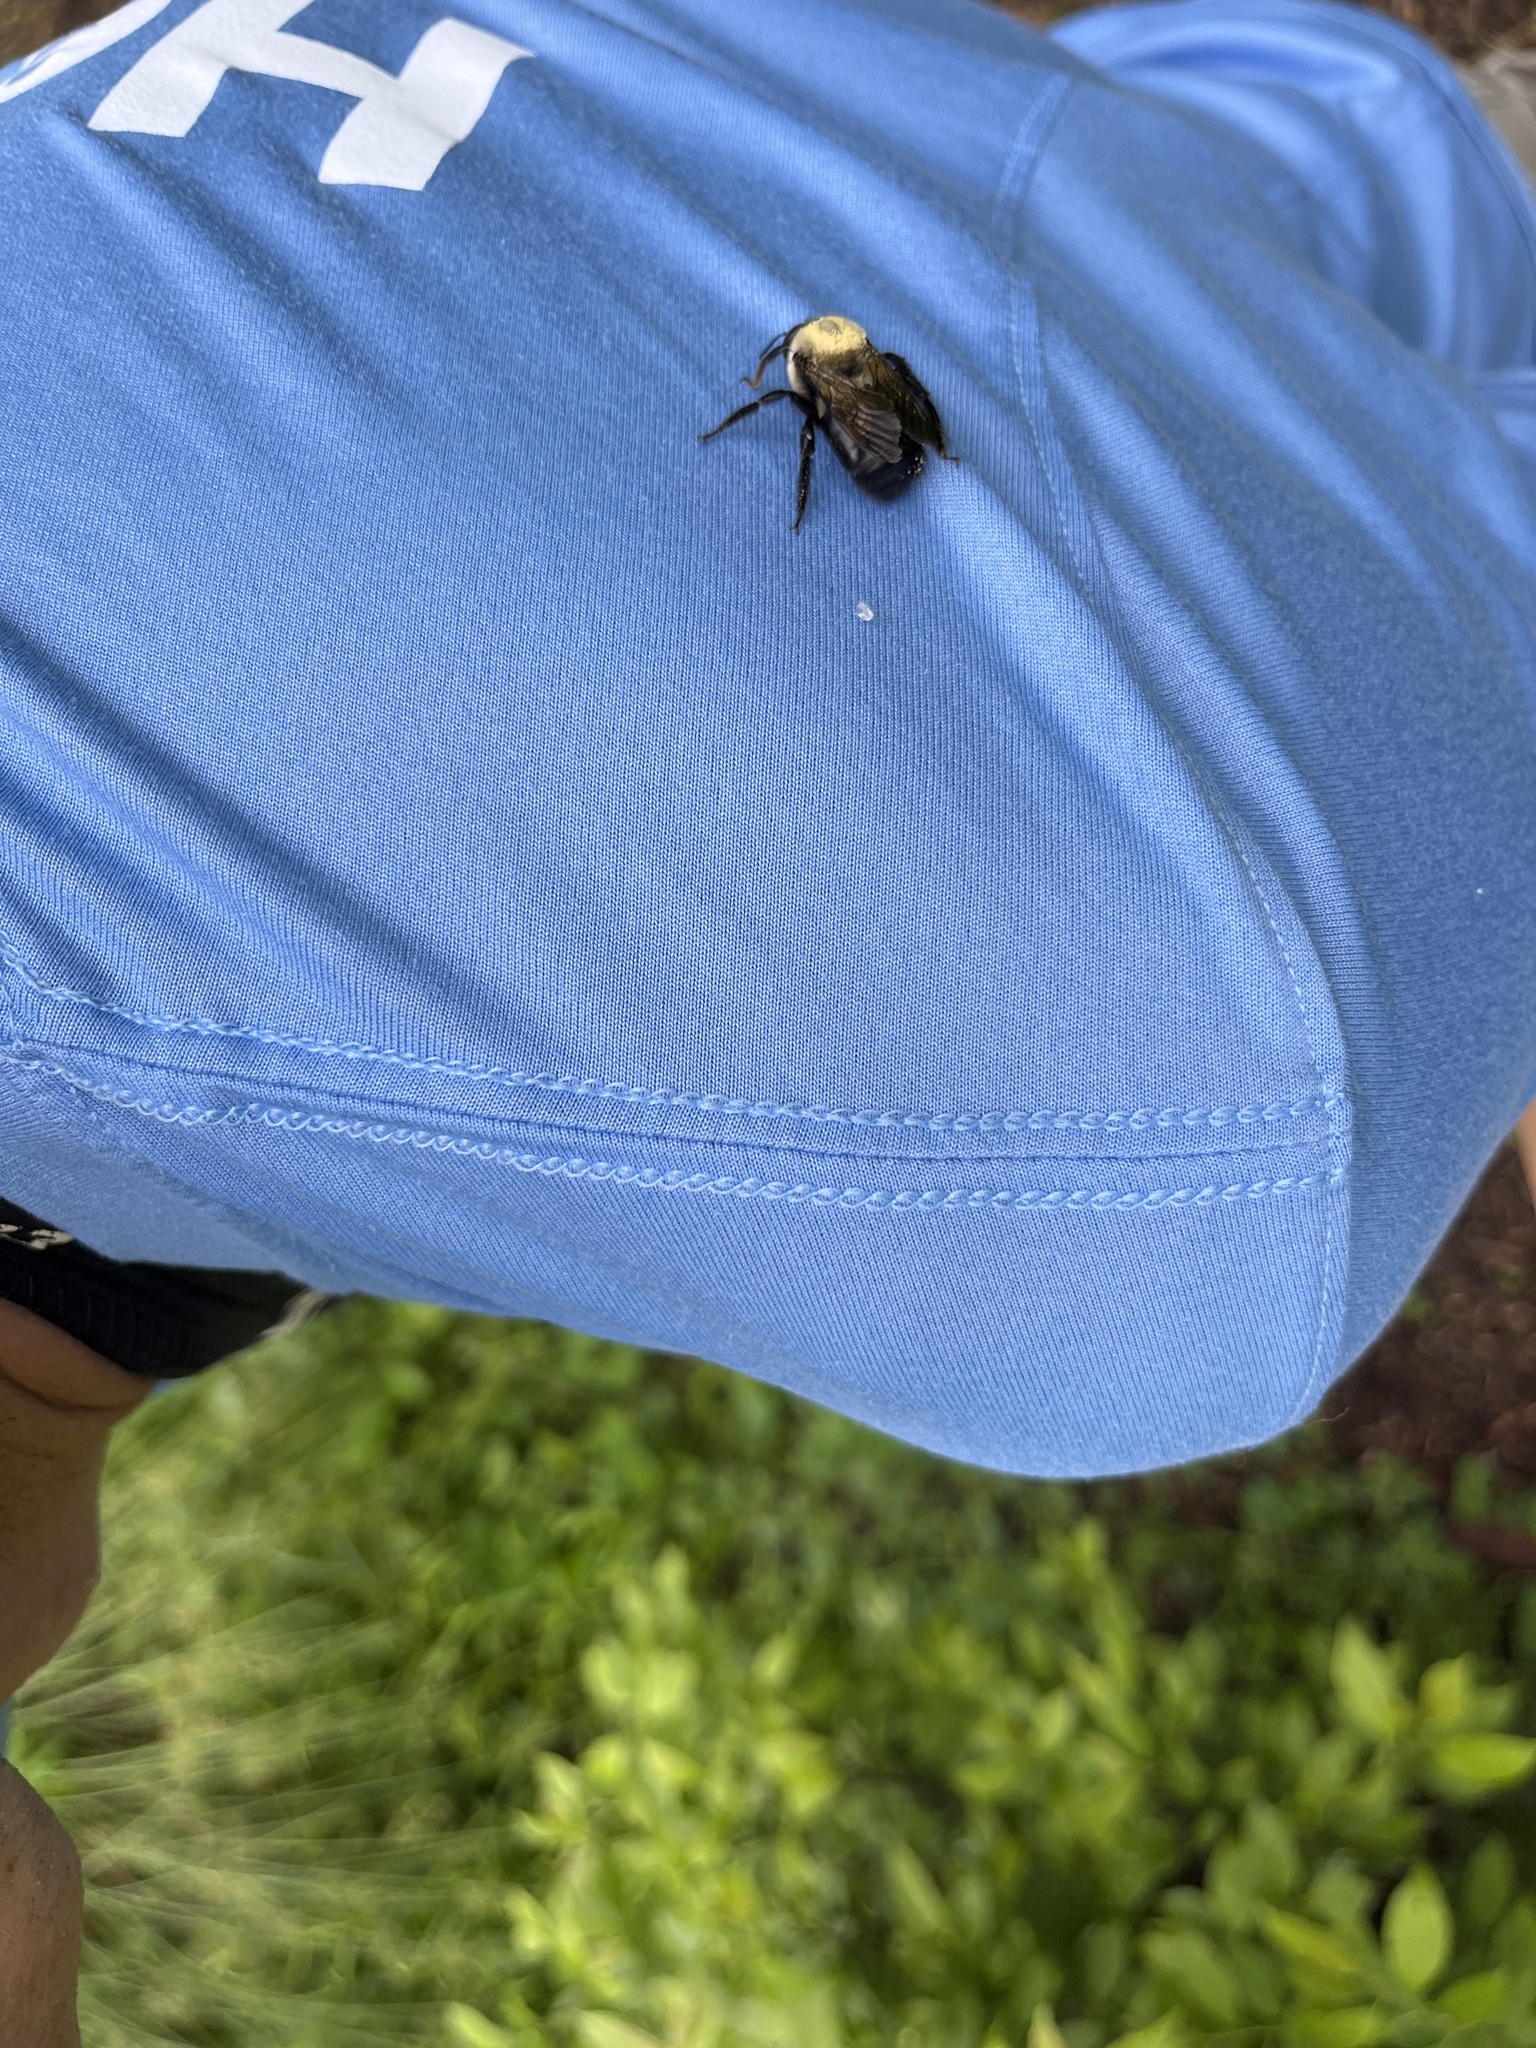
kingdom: Animalia
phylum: Arthropoda
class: Insecta
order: Hymenoptera
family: Apidae
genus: Xylocopa
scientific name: Xylocopa virginica
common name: Carpenter bee
